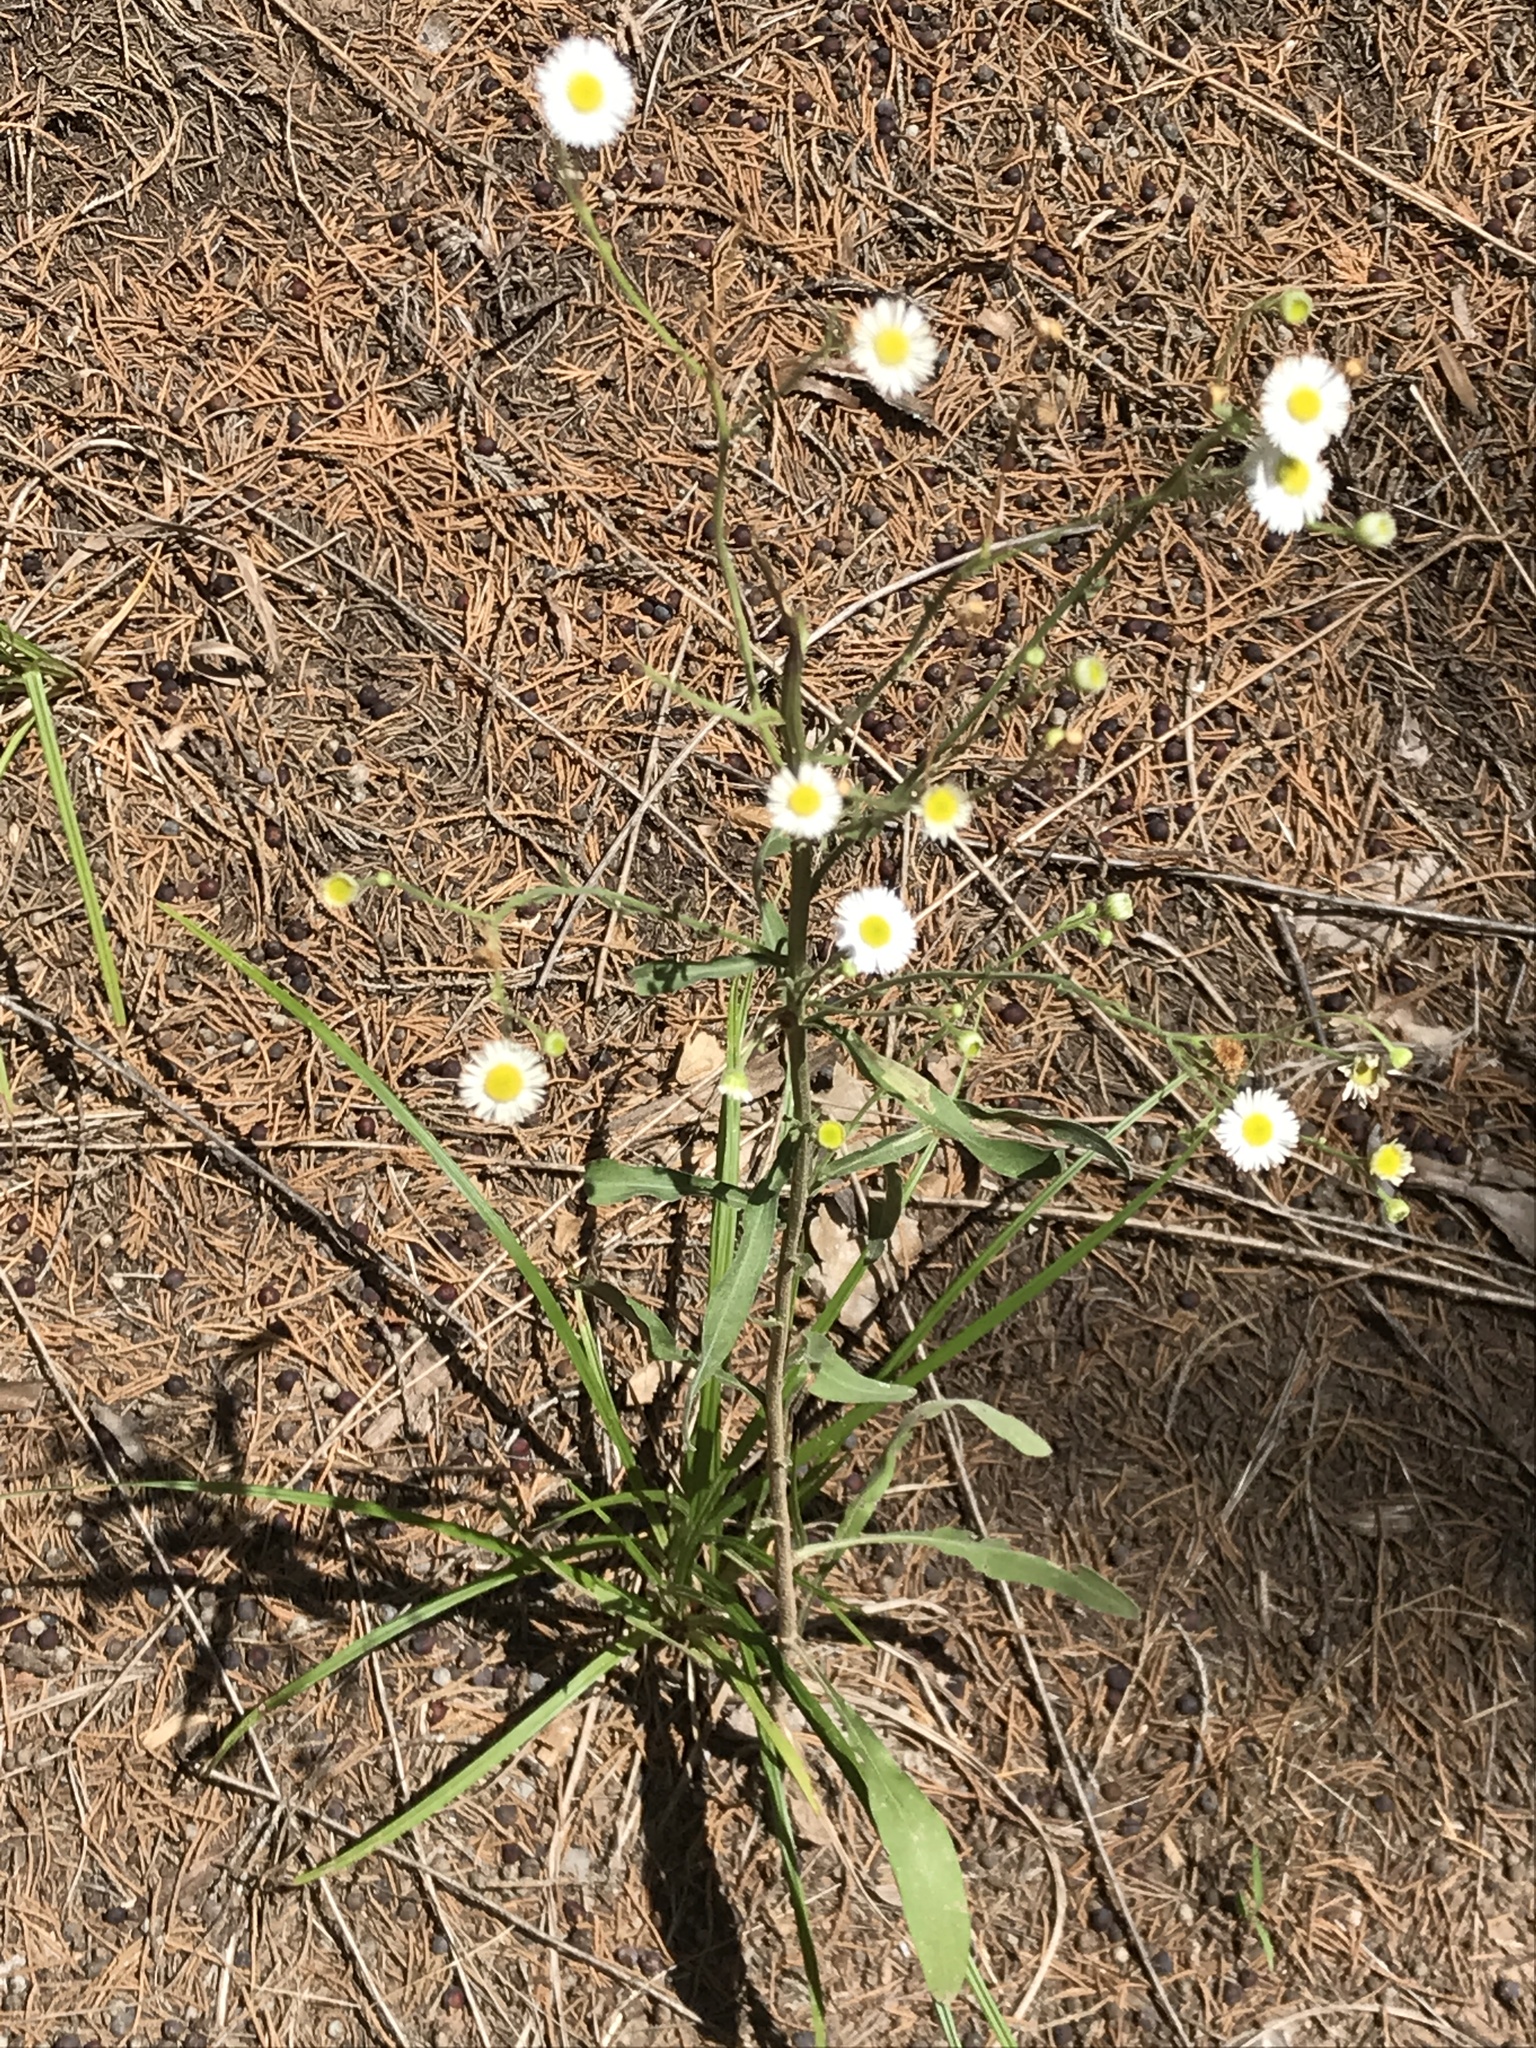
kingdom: Plantae
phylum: Tracheophyta
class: Magnoliopsida
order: Asterales
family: Asteraceae
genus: Erigeron
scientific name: Erigeron strigosus
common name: Common eastern fleabane
